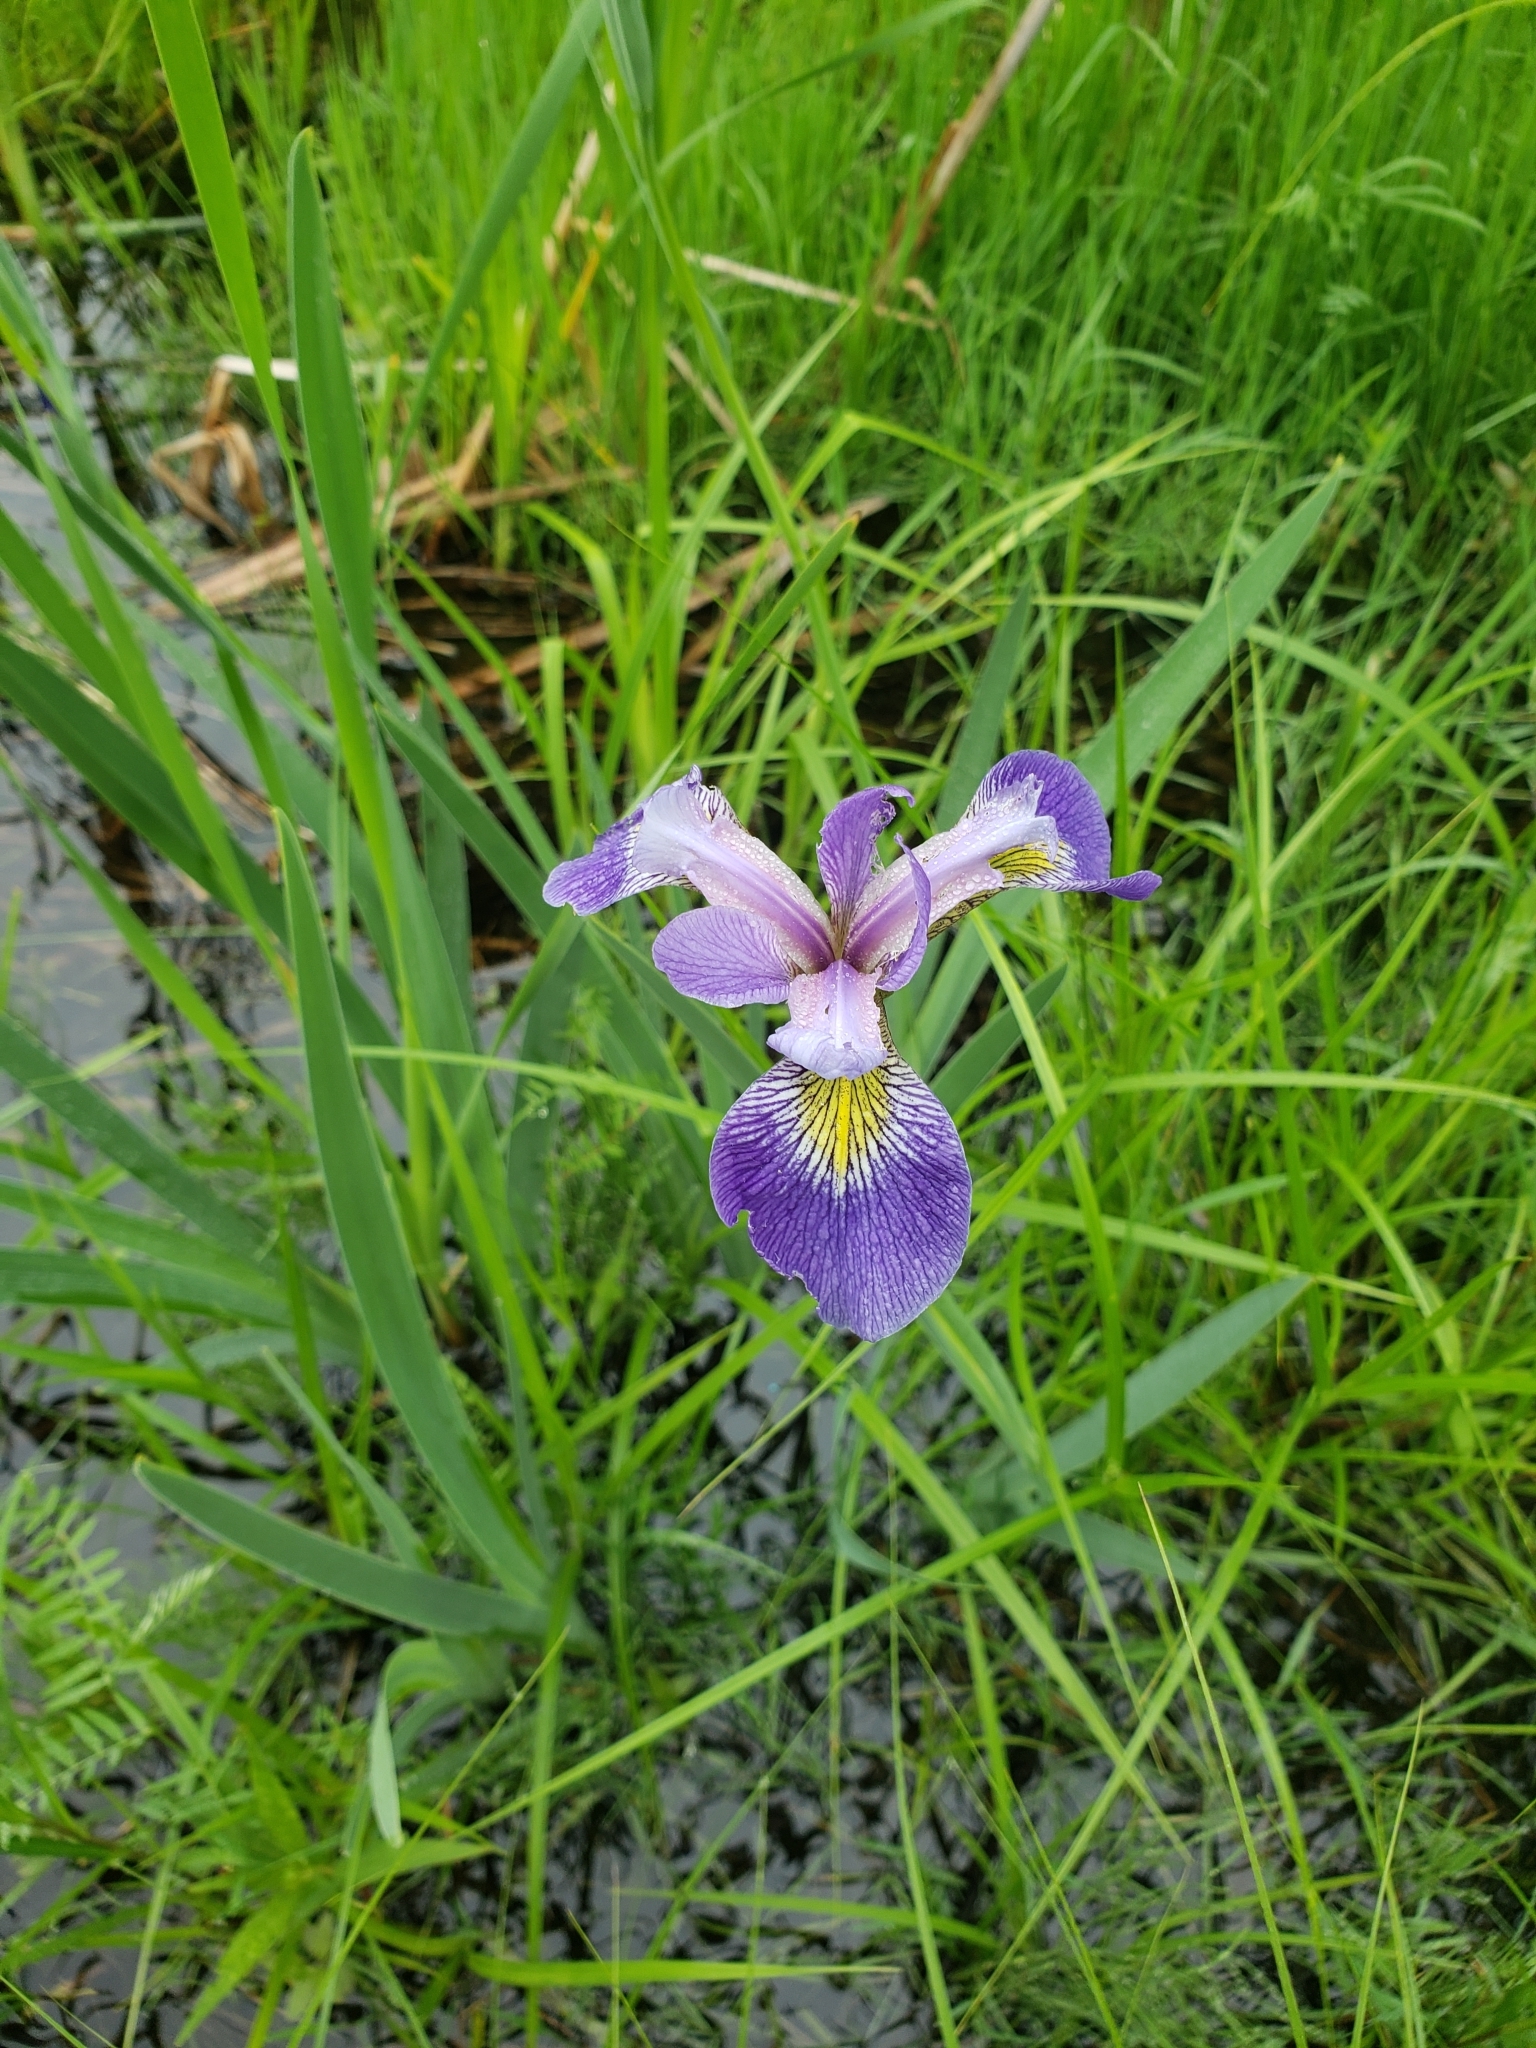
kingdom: Plantae
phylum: Tracheophyta
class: Liliopsida
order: Asparagales
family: Iridaceae
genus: Iris
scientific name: Iris versicolor
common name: Purple iris
